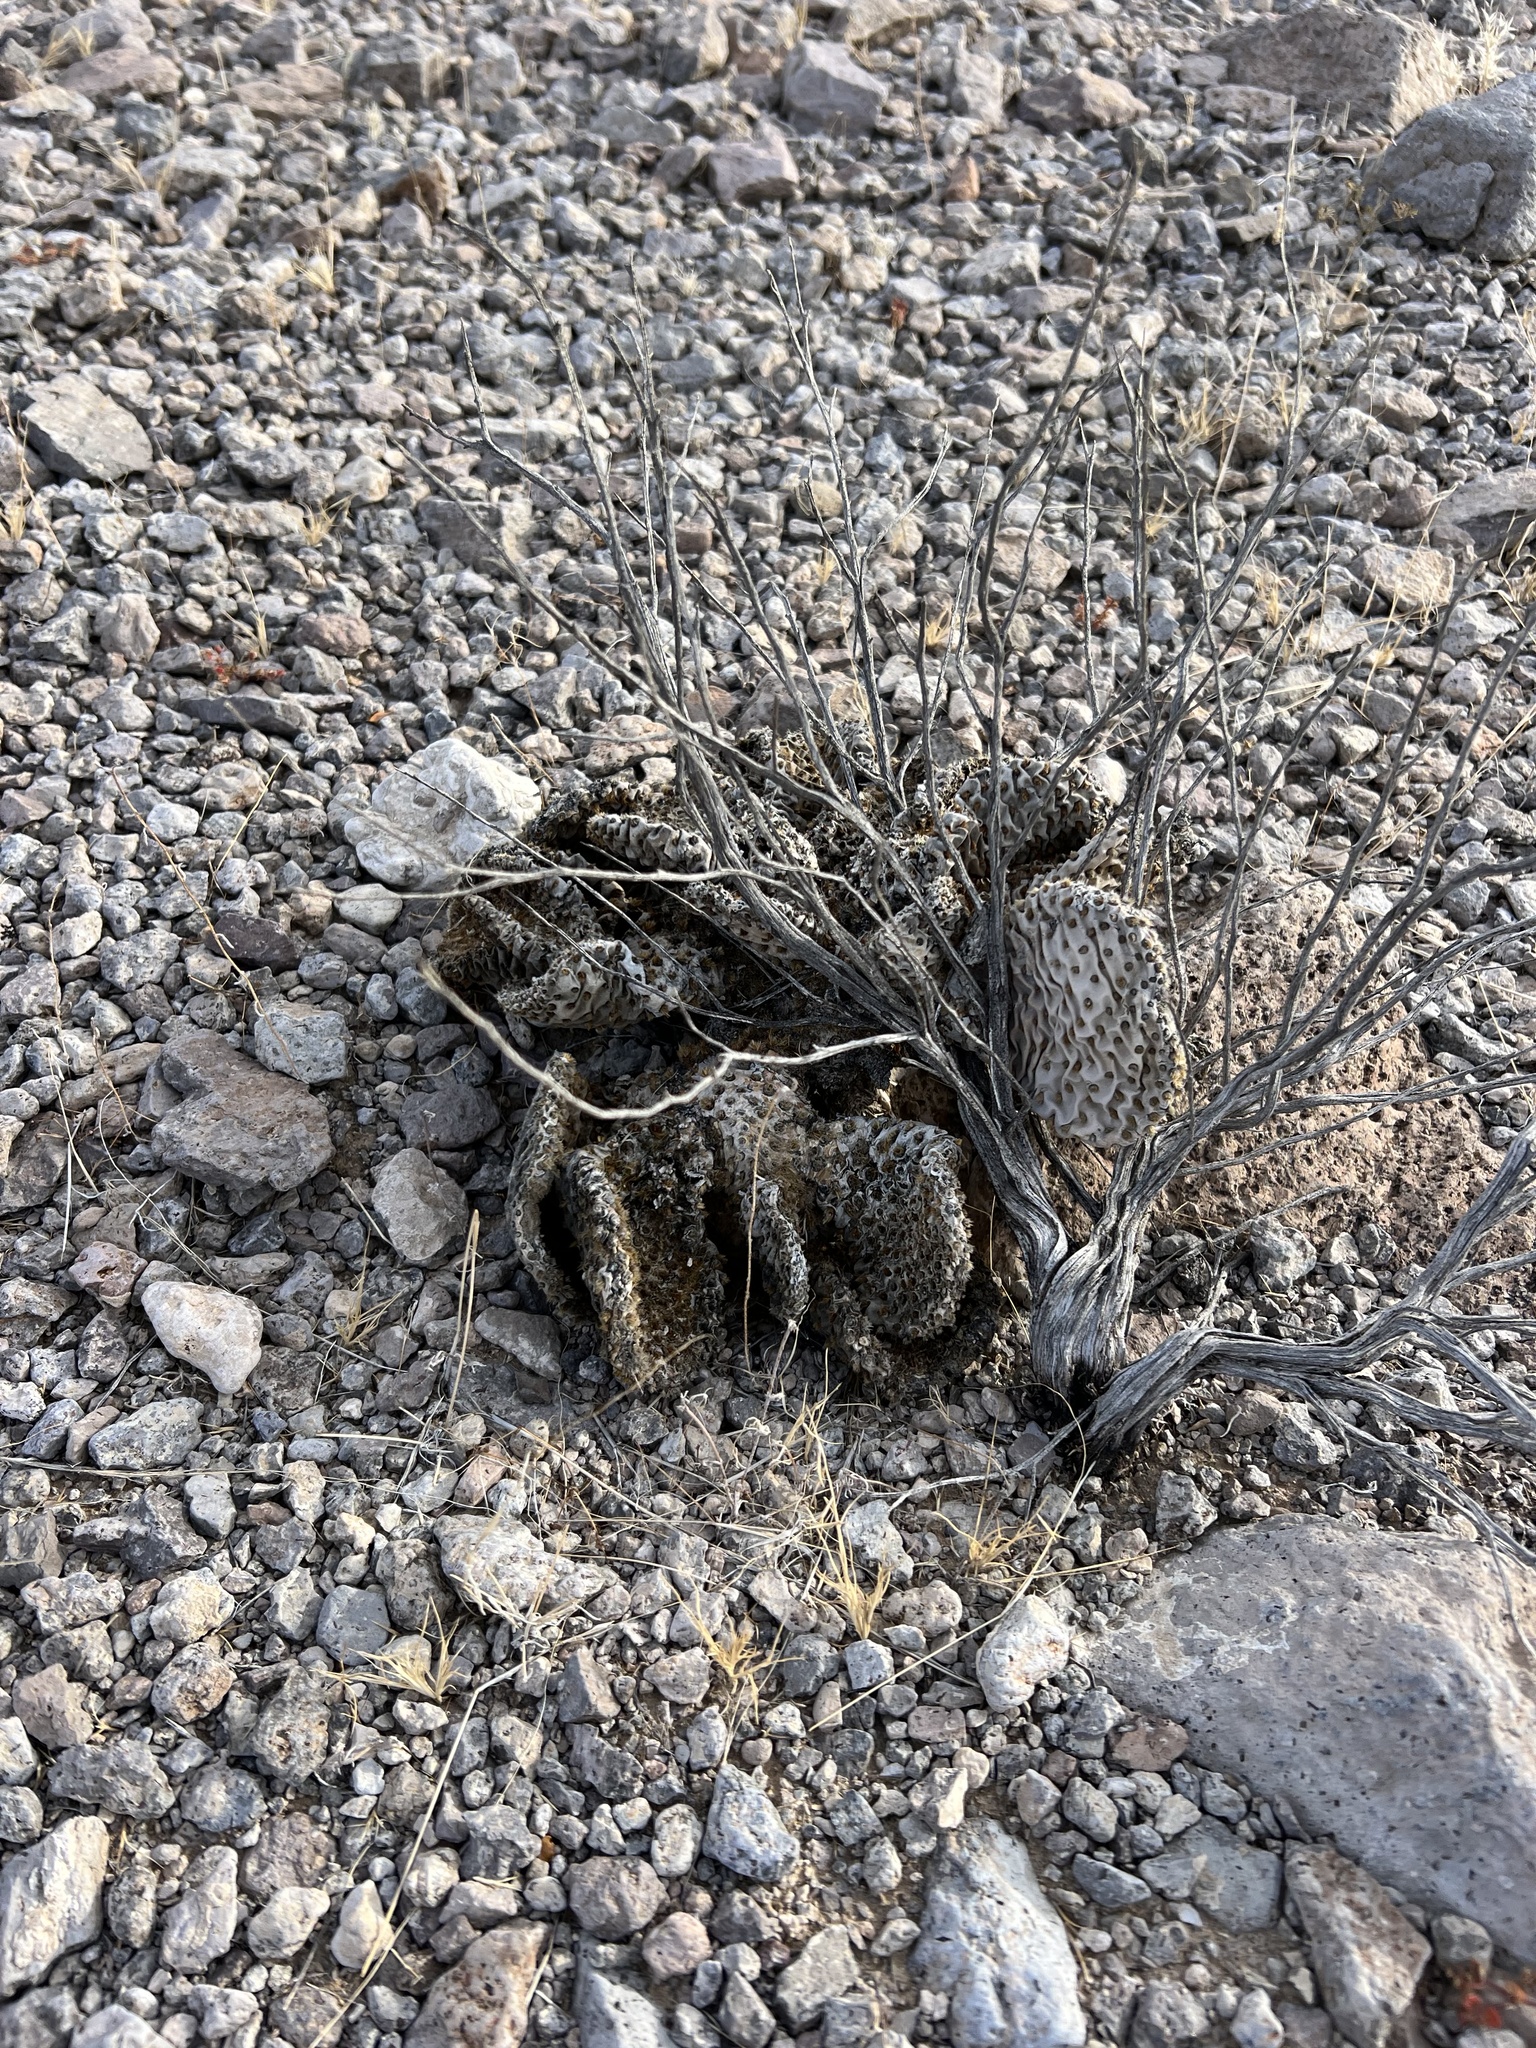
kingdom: Plantae
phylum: Tracheophyta
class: Magnoliopsida
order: Caryophyllales
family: Cactaceae
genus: Opuntia
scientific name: Opuntia basilaris
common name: Beavertail prickly-pear
